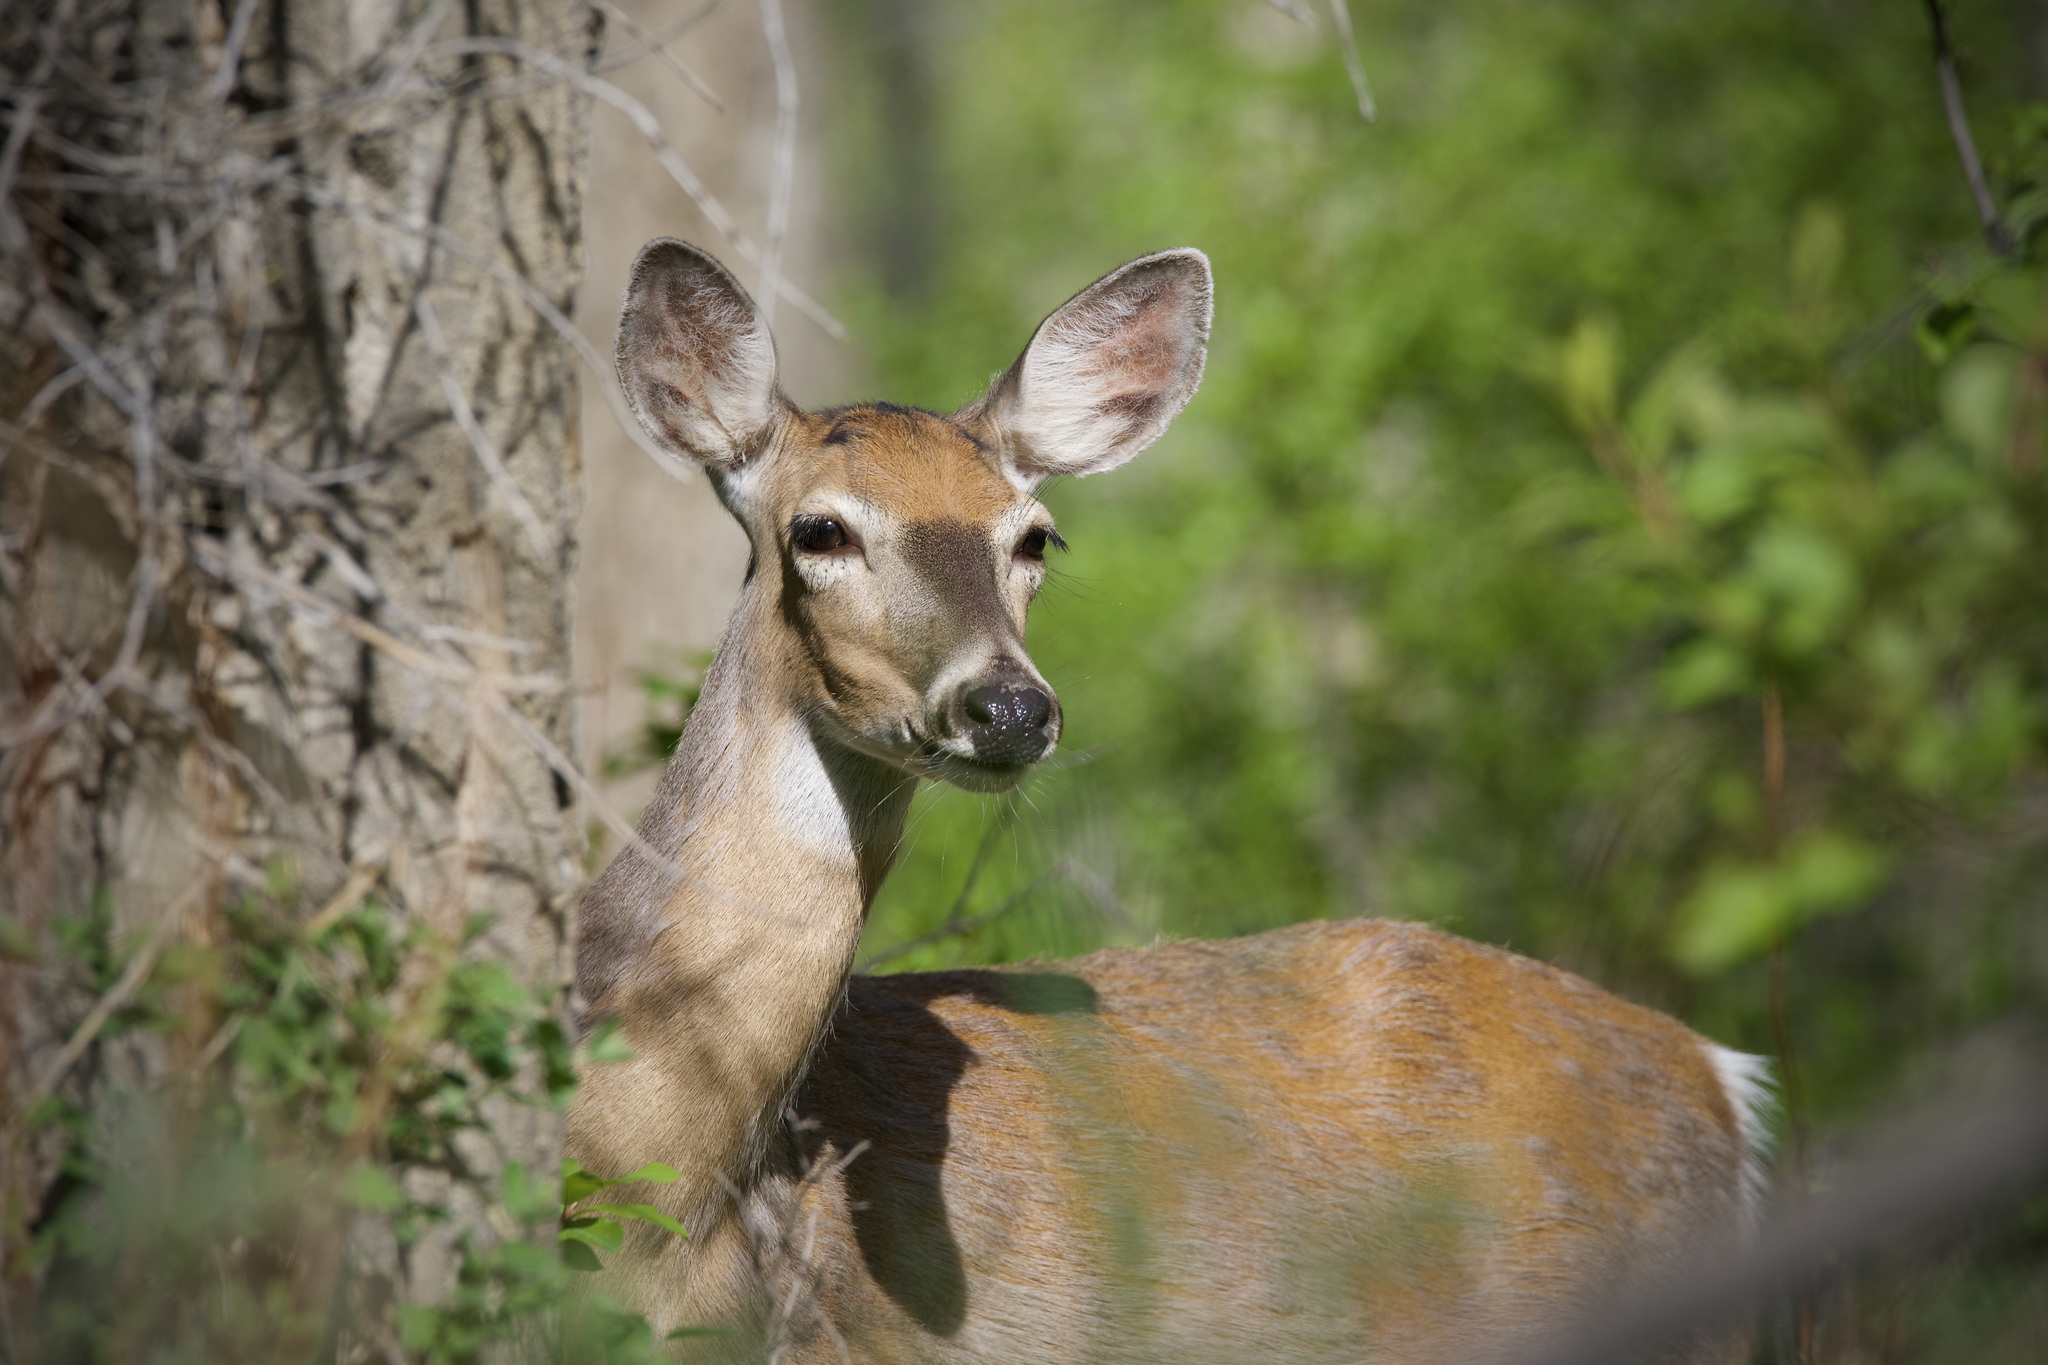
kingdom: Animalia
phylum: Chordata
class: Mammalia
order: Artiodactyla
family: Cervidae
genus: Odocoileus
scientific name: Odocoileus virginianus
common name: White-tailed deer
